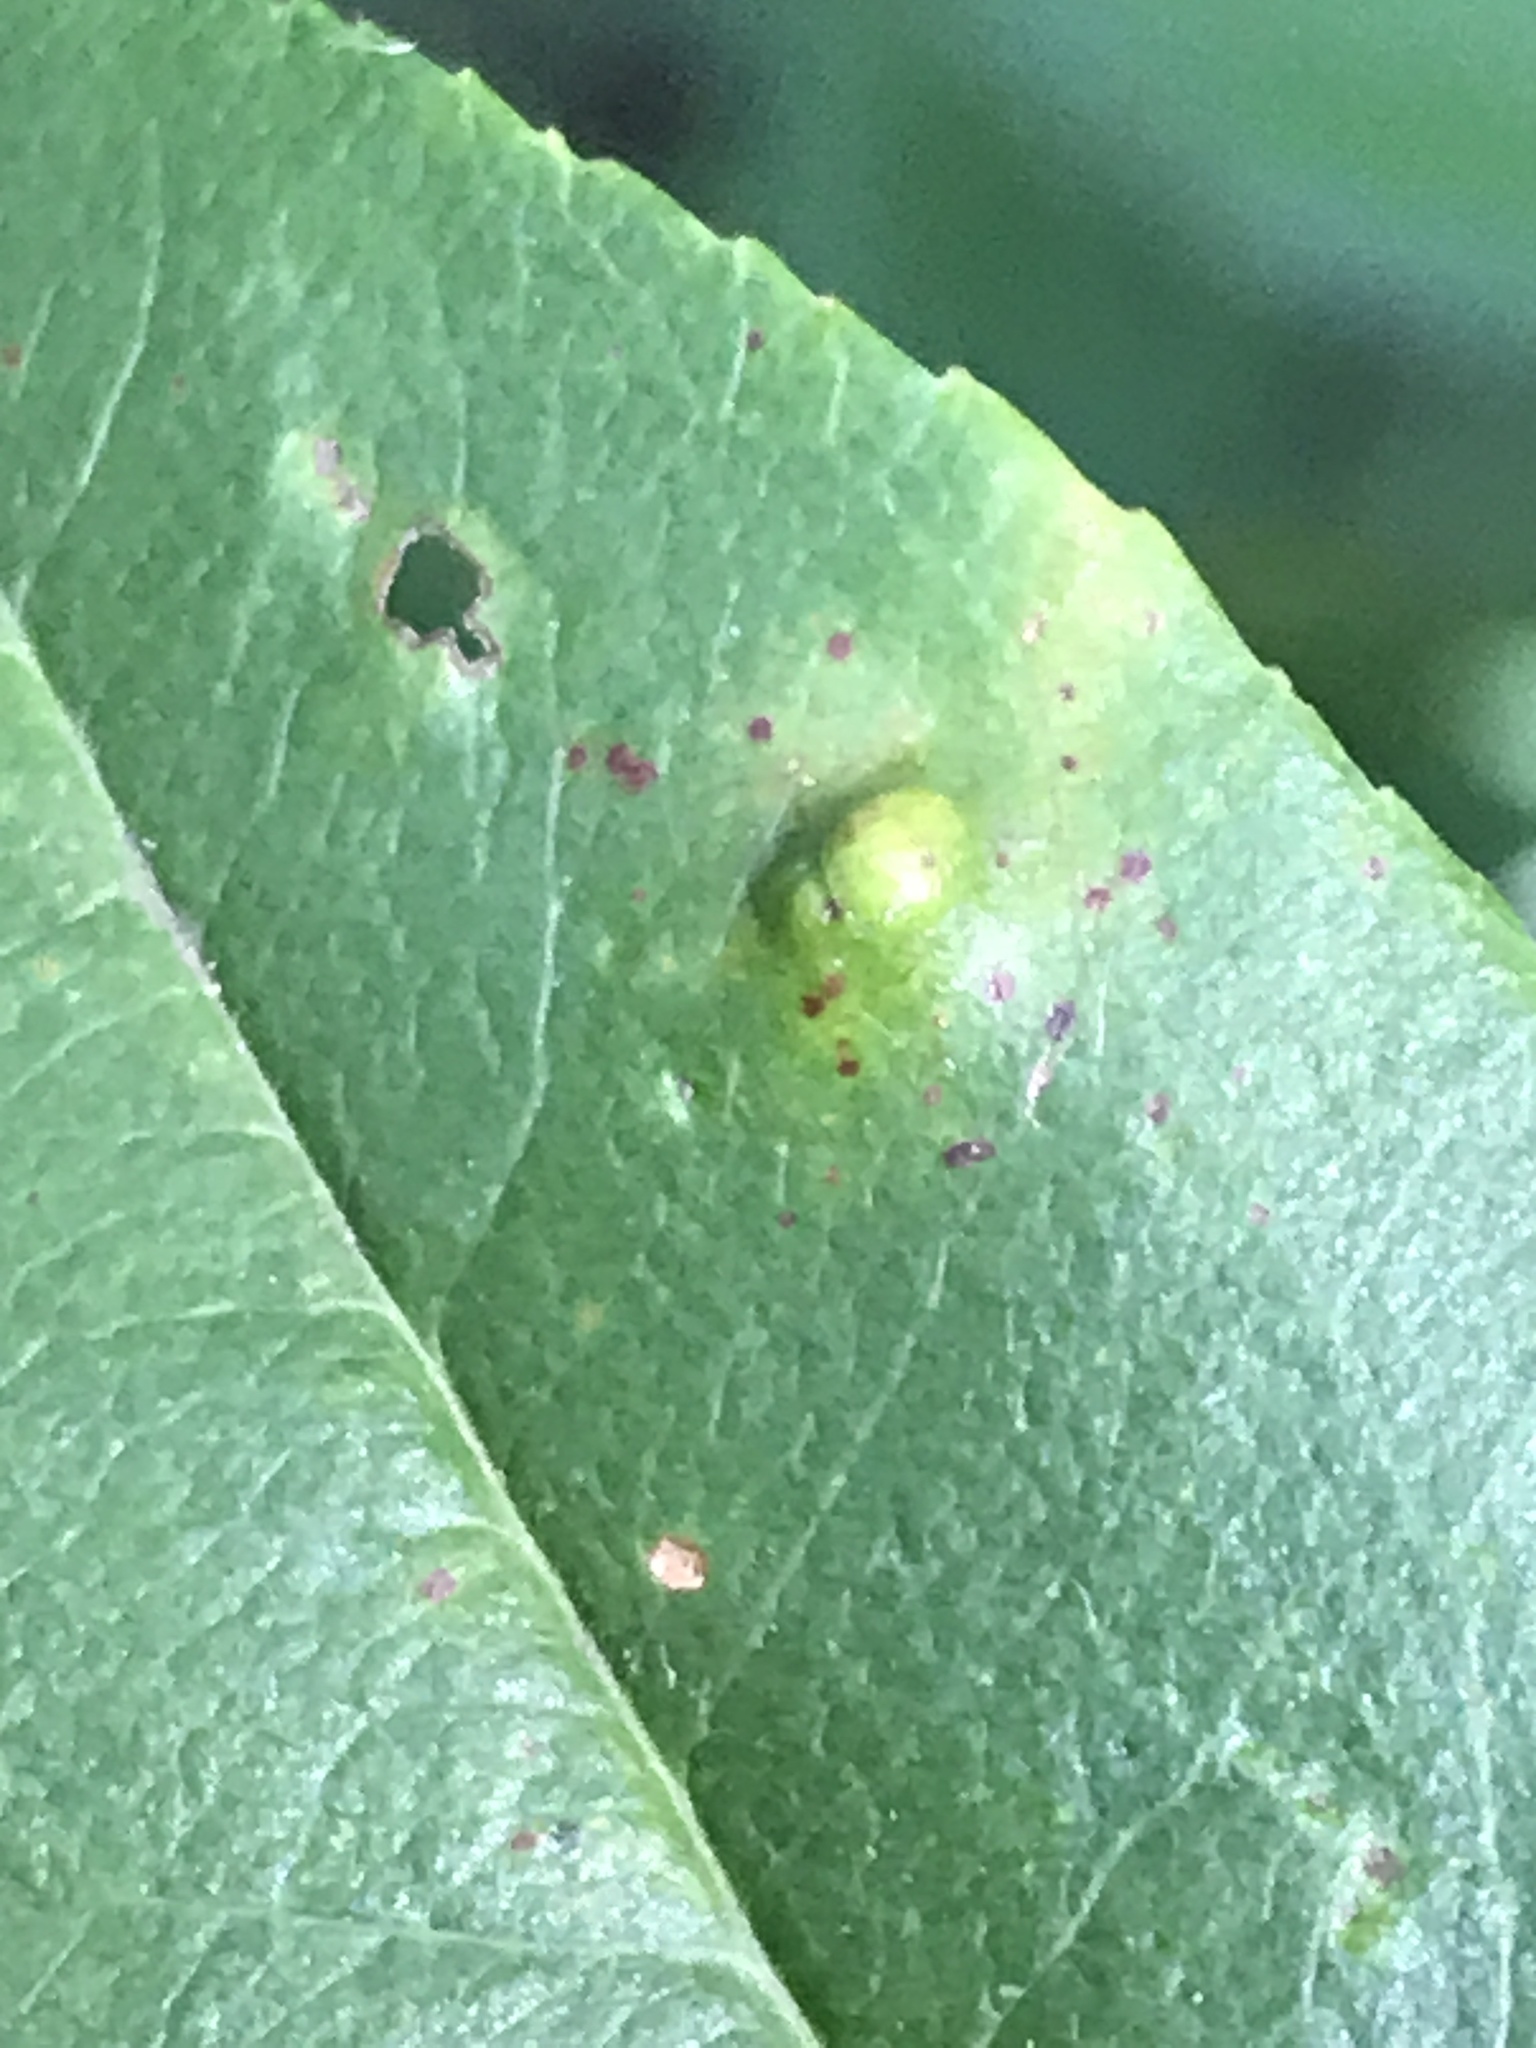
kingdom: Fungi
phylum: Ascomycota
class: Taphrinomycetes
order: Taphrinales
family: Taphrinaceae
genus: Taphrina
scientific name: Taphrina farlowii
